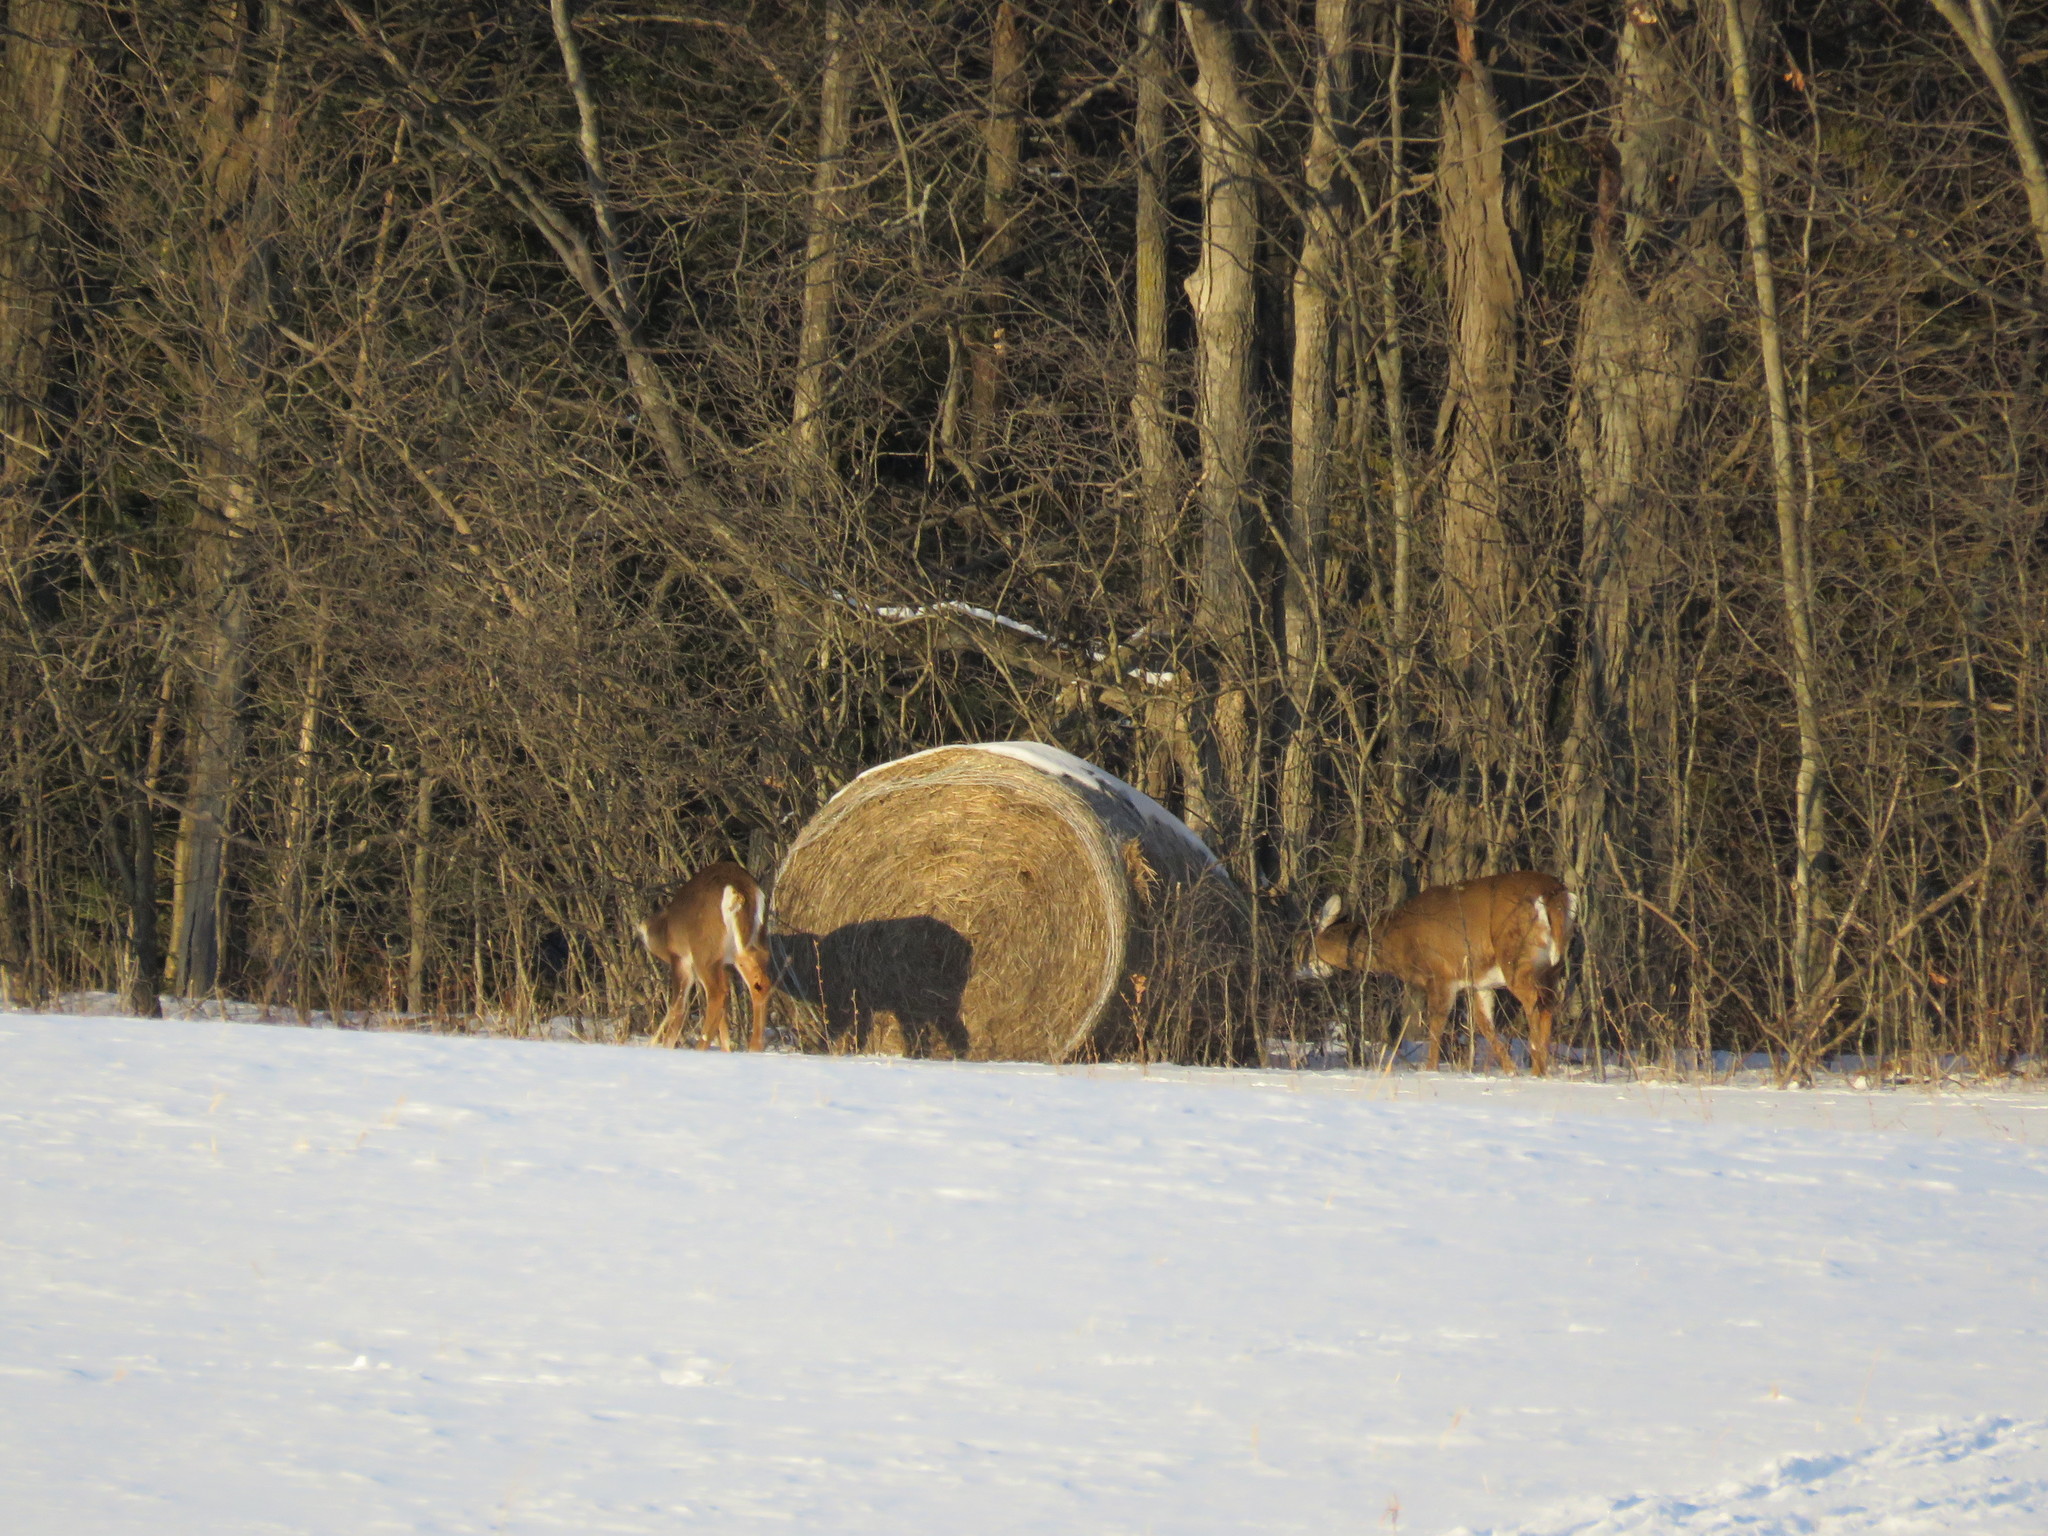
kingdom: Animalia
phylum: Chordata
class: Mammalia
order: Artiodactyla
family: Cervidae
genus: Odocoileus
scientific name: Odocoileus virginianus
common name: White-tailed deer
